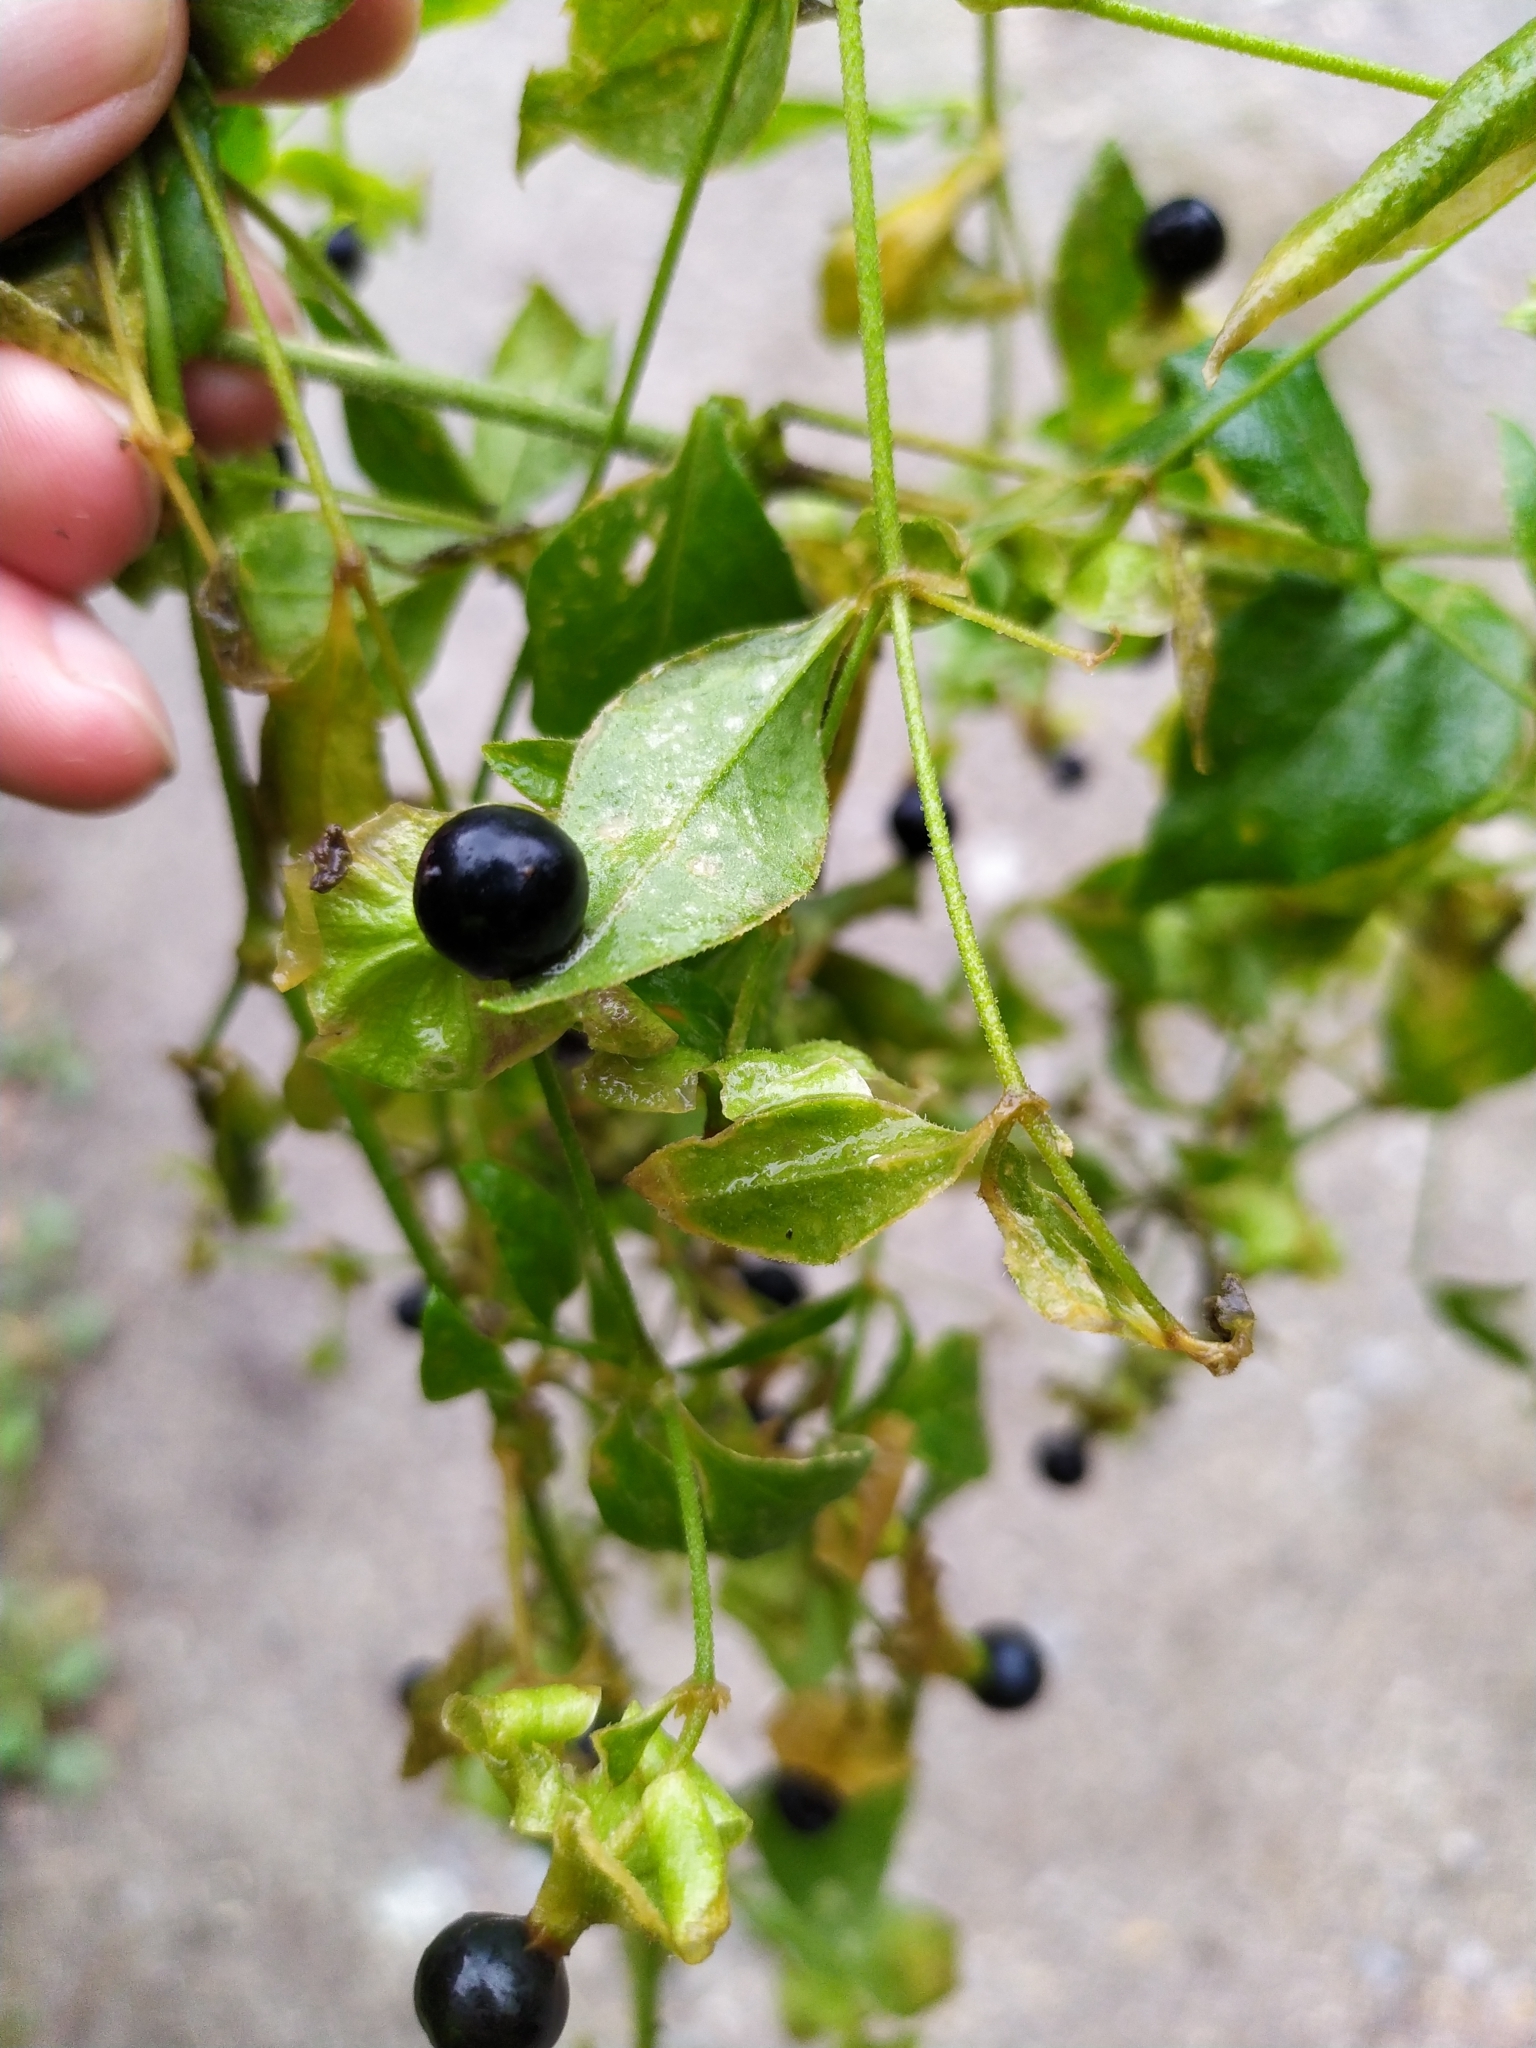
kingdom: Plantae
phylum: Tracheophyta
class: Magnoliopsida
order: Caryophyllales
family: Caryophyllaceae
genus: Silene
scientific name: Silene baccifera
